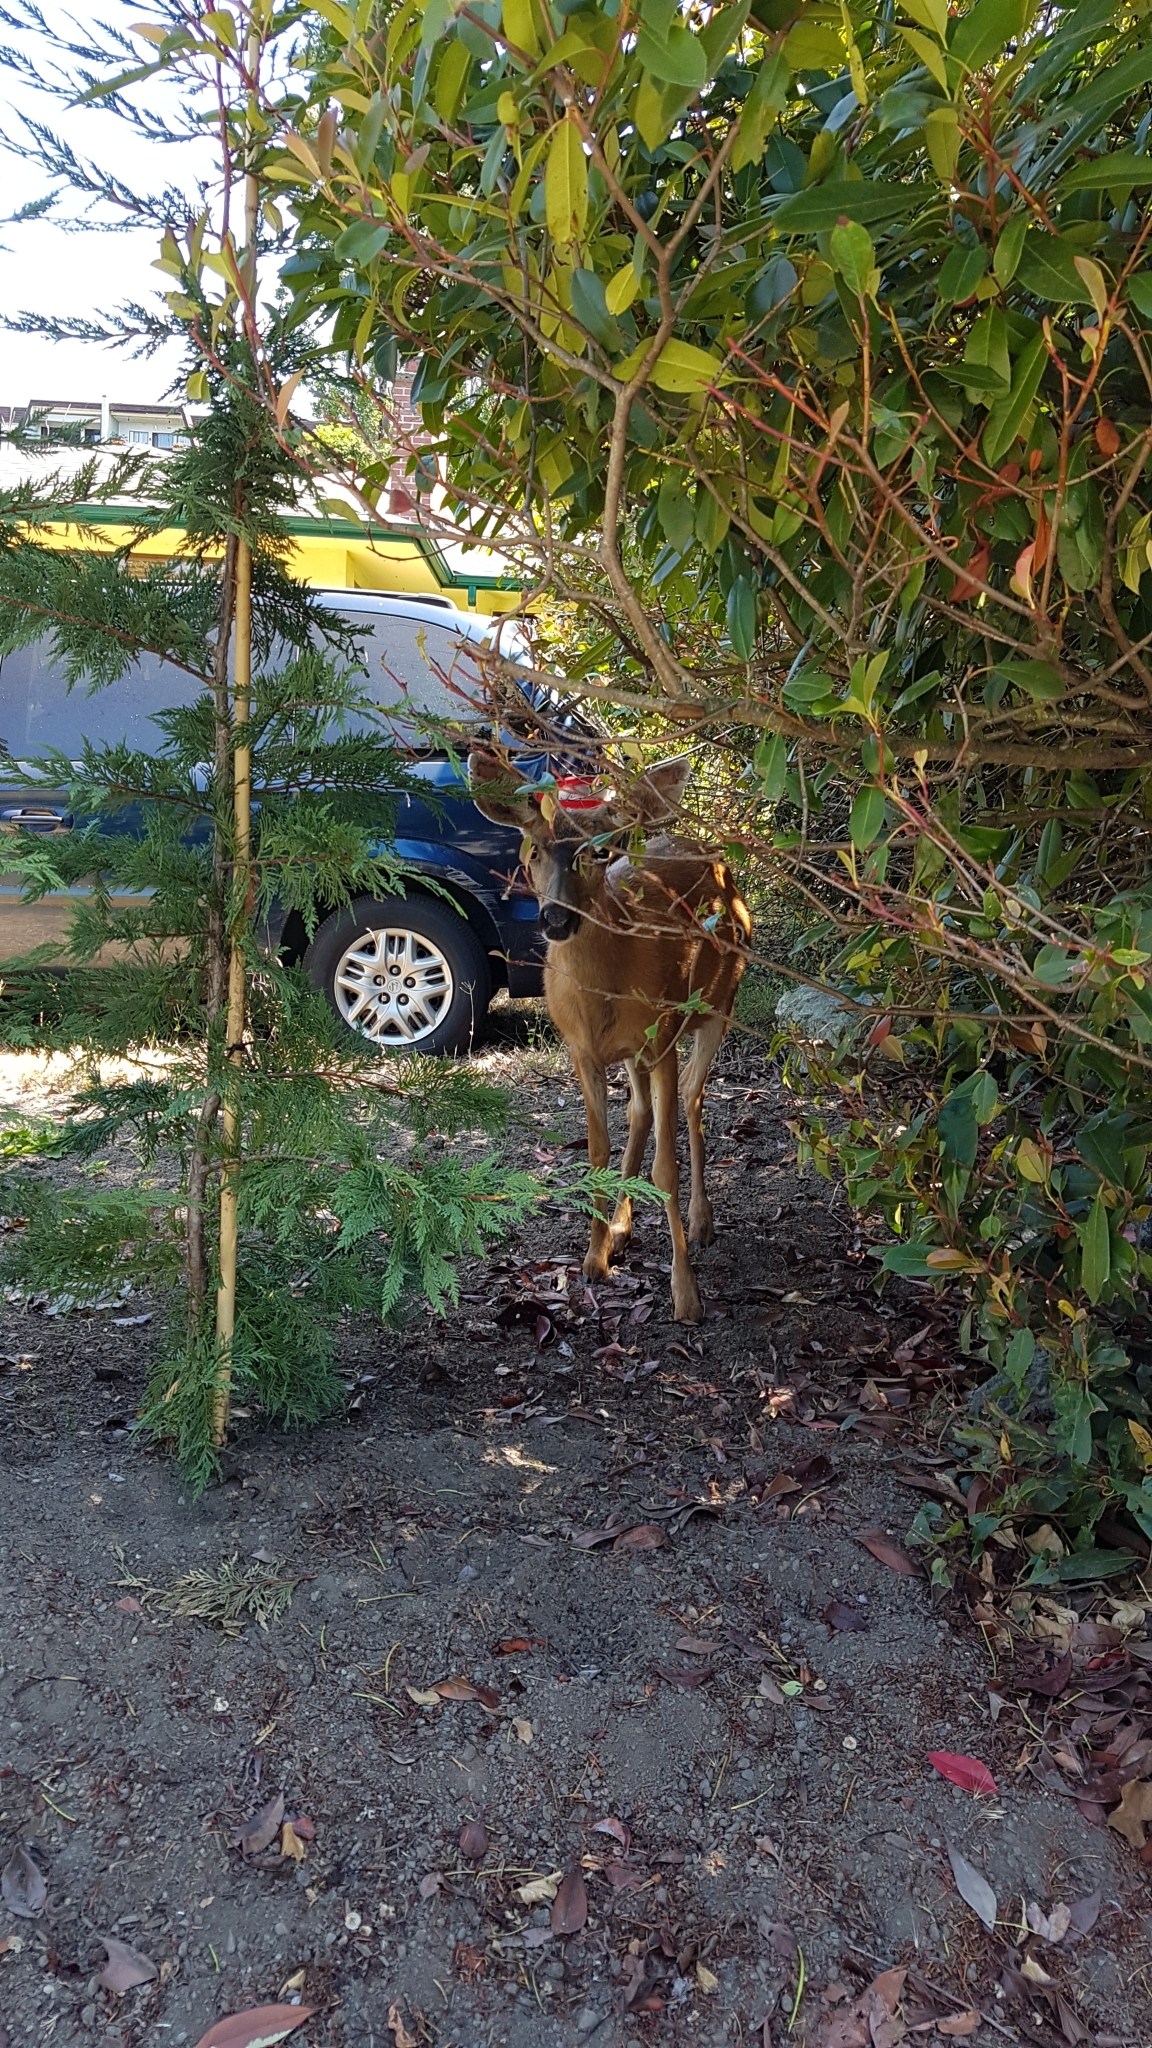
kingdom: Animalia
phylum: Chordata
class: Mammalia
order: Artiodactyla
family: Cervidae
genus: Odocoileus
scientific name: Odocoileus hemionus
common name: Mule deer
